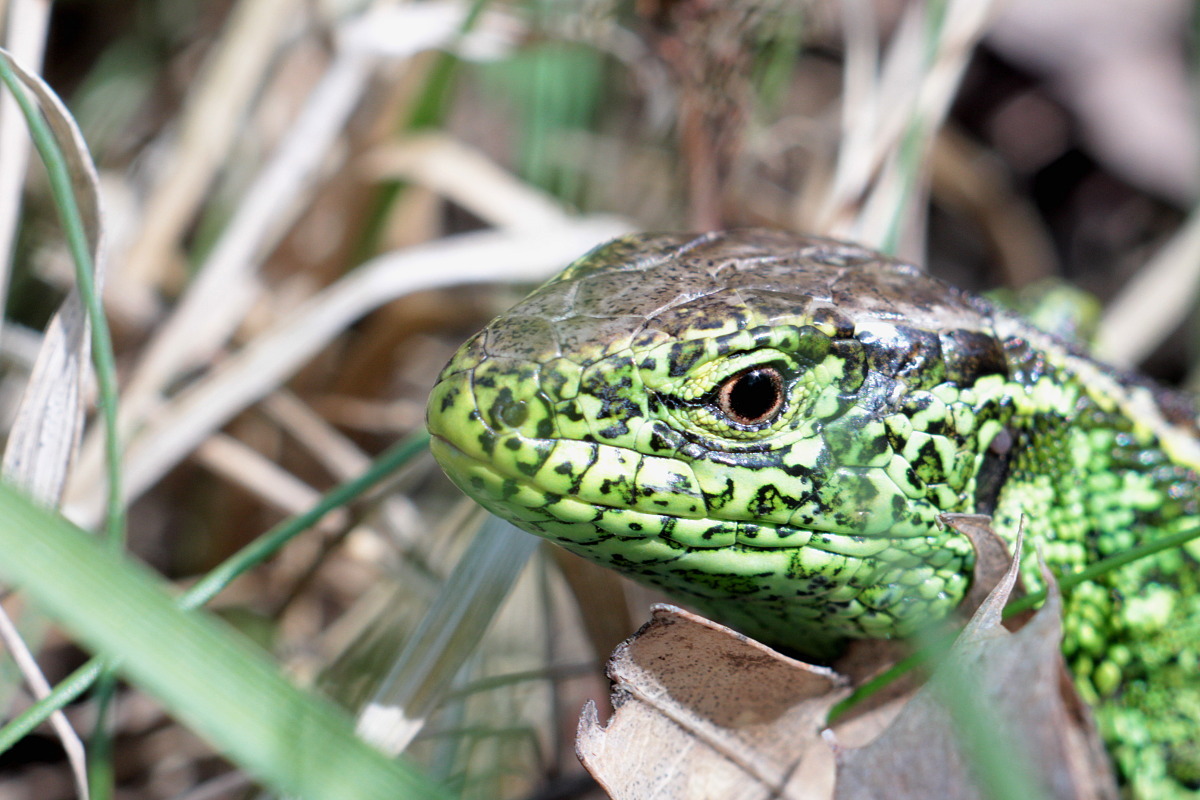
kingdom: Animalia
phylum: Chordata
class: Squamata
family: Lacertidae
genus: Lacerta
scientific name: Lacerta agilis
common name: Sand lizard
